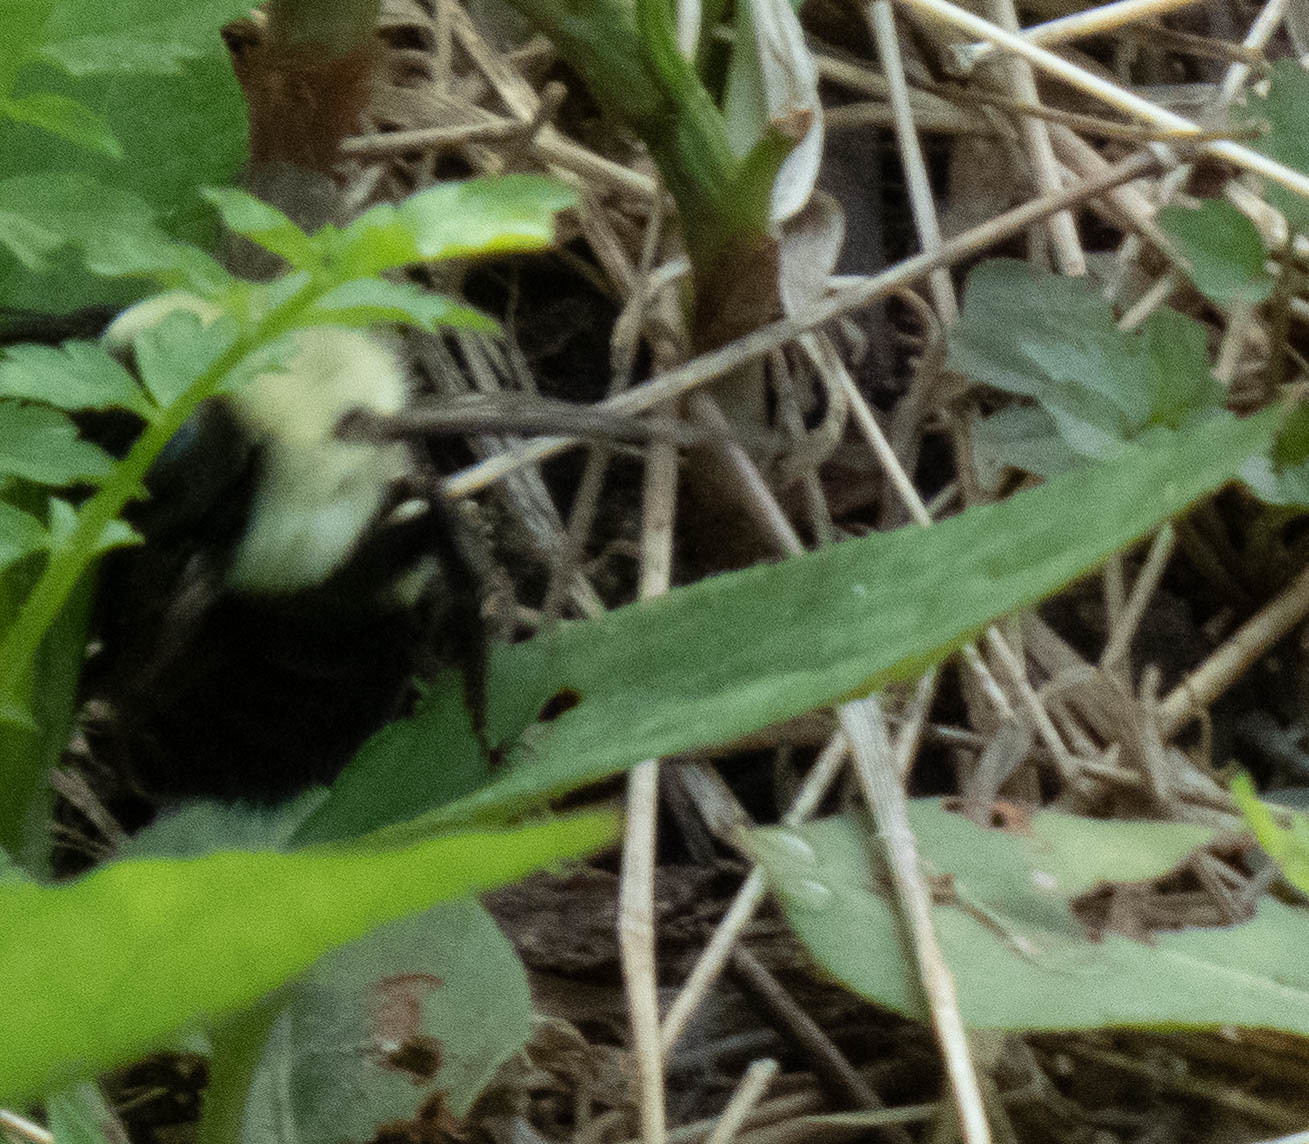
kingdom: Animalia
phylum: Arthropoda
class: Insecta
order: Hymenoptera
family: Apidae
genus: Bombus
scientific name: Bombus impatiens
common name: Common eastern bumble bee
